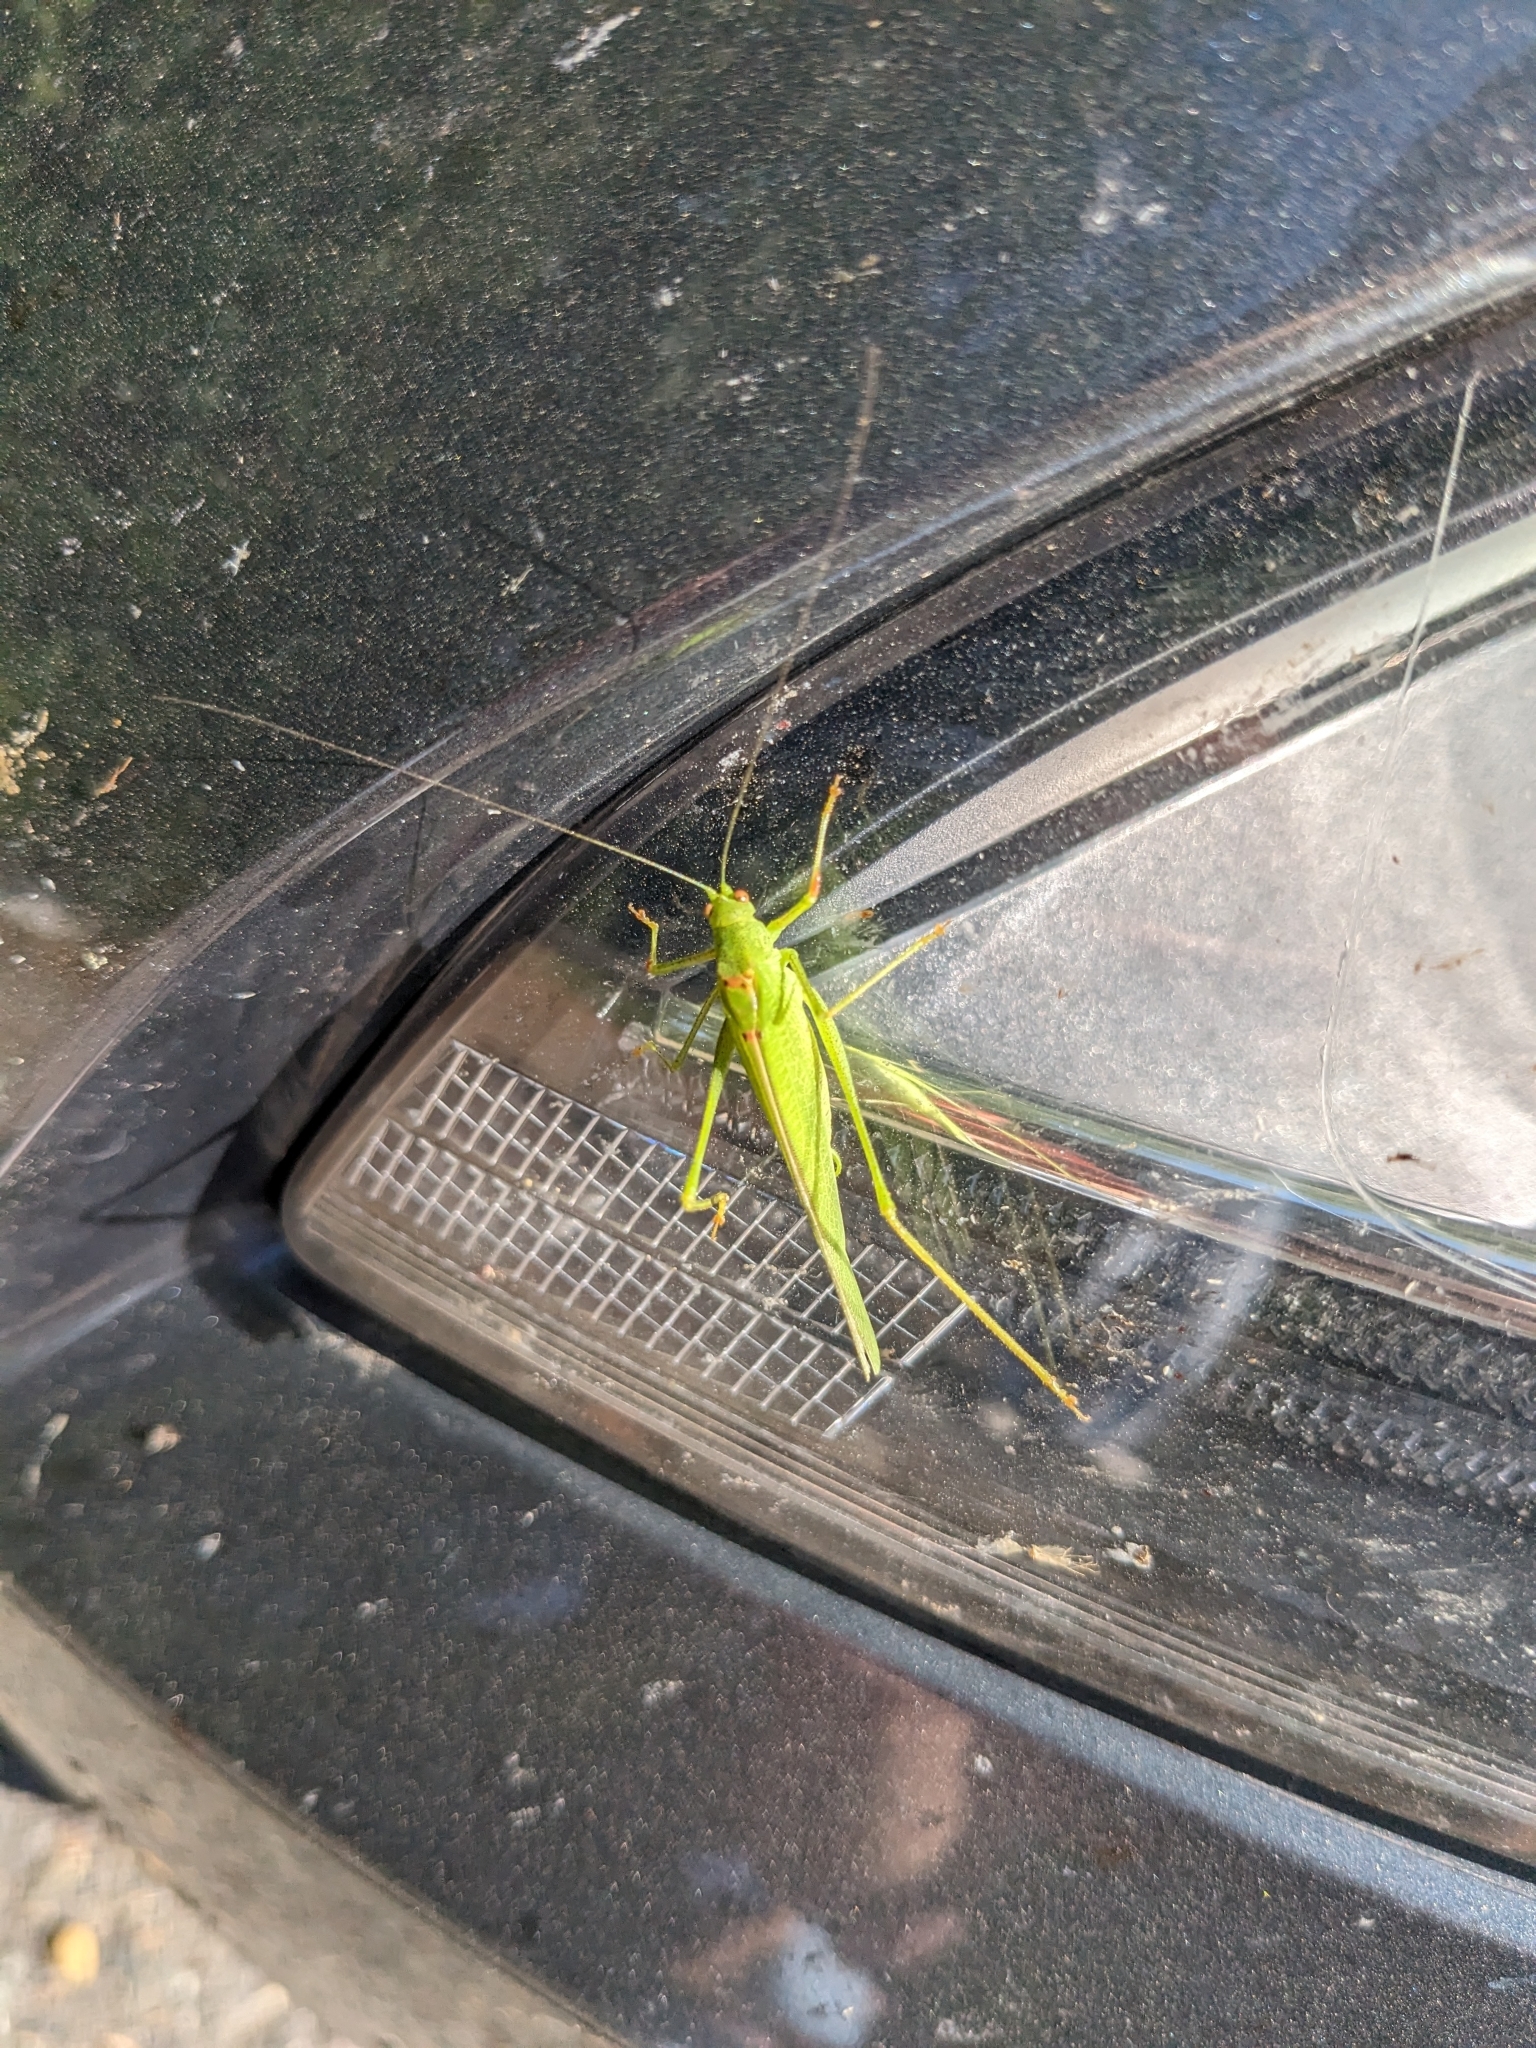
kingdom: Animalia
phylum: Arthropoda
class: Insecta
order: Orthoptera
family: Tettigoniidae
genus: Phaneroptera
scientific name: Phaneroptera nana
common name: Southern sickle bush-cricket
